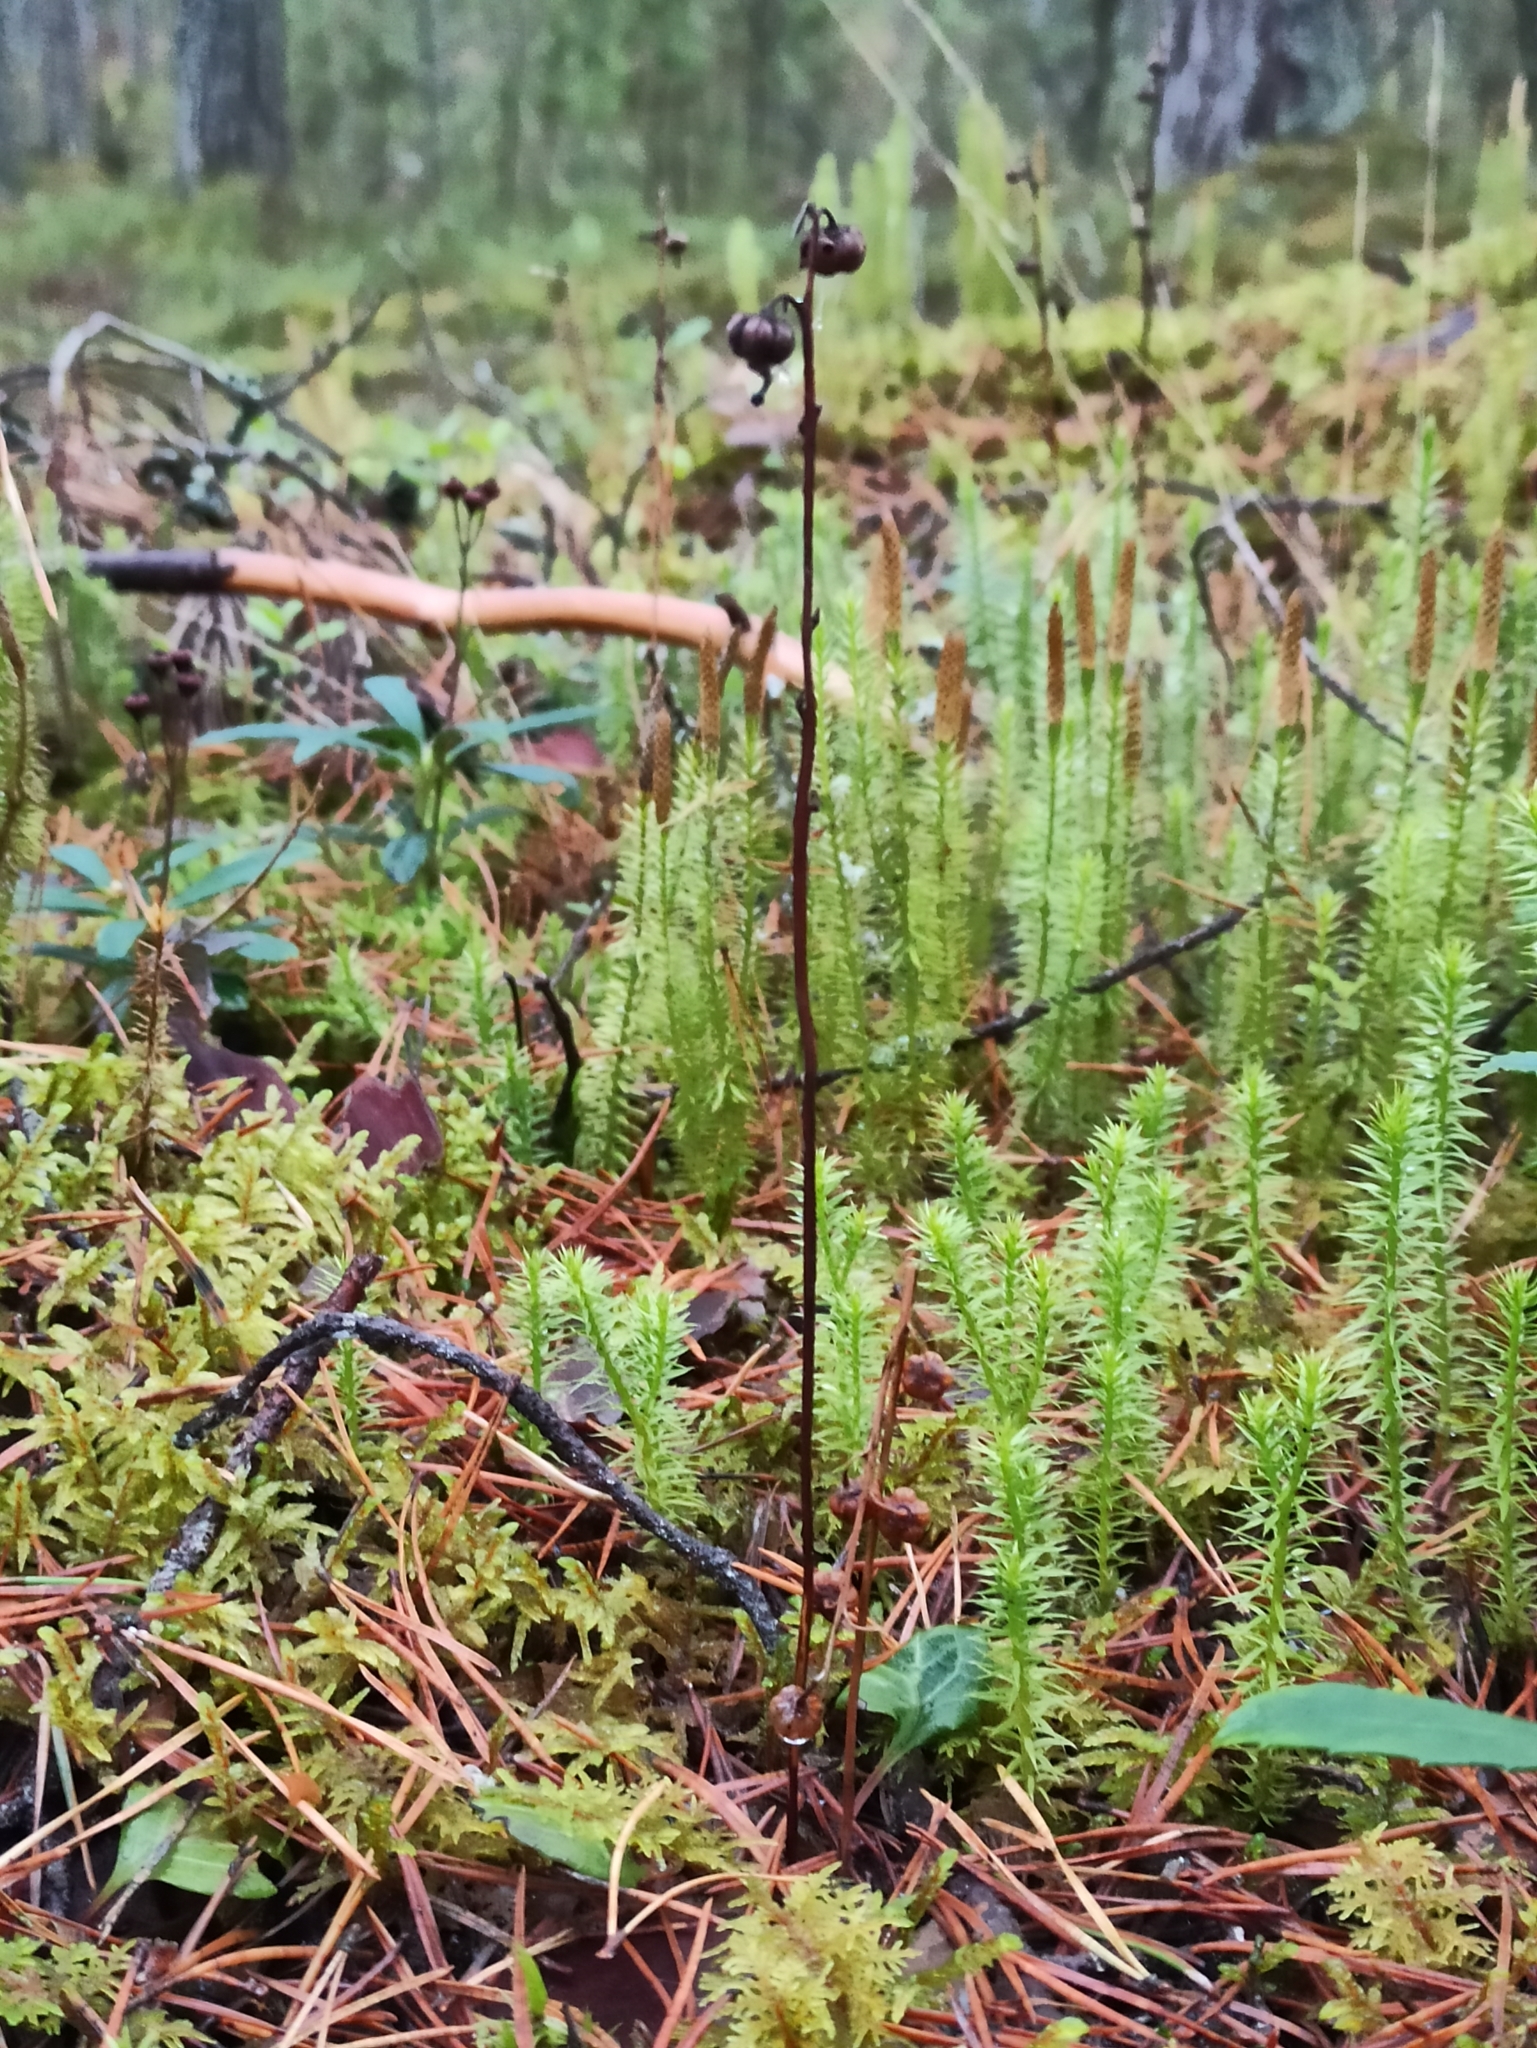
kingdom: Plantae
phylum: Tracheophyta
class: Magnoliopsida
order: Ericales
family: Ericaceae
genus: Pyrola
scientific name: Pyrola chlorantha
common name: Green wintergreen
